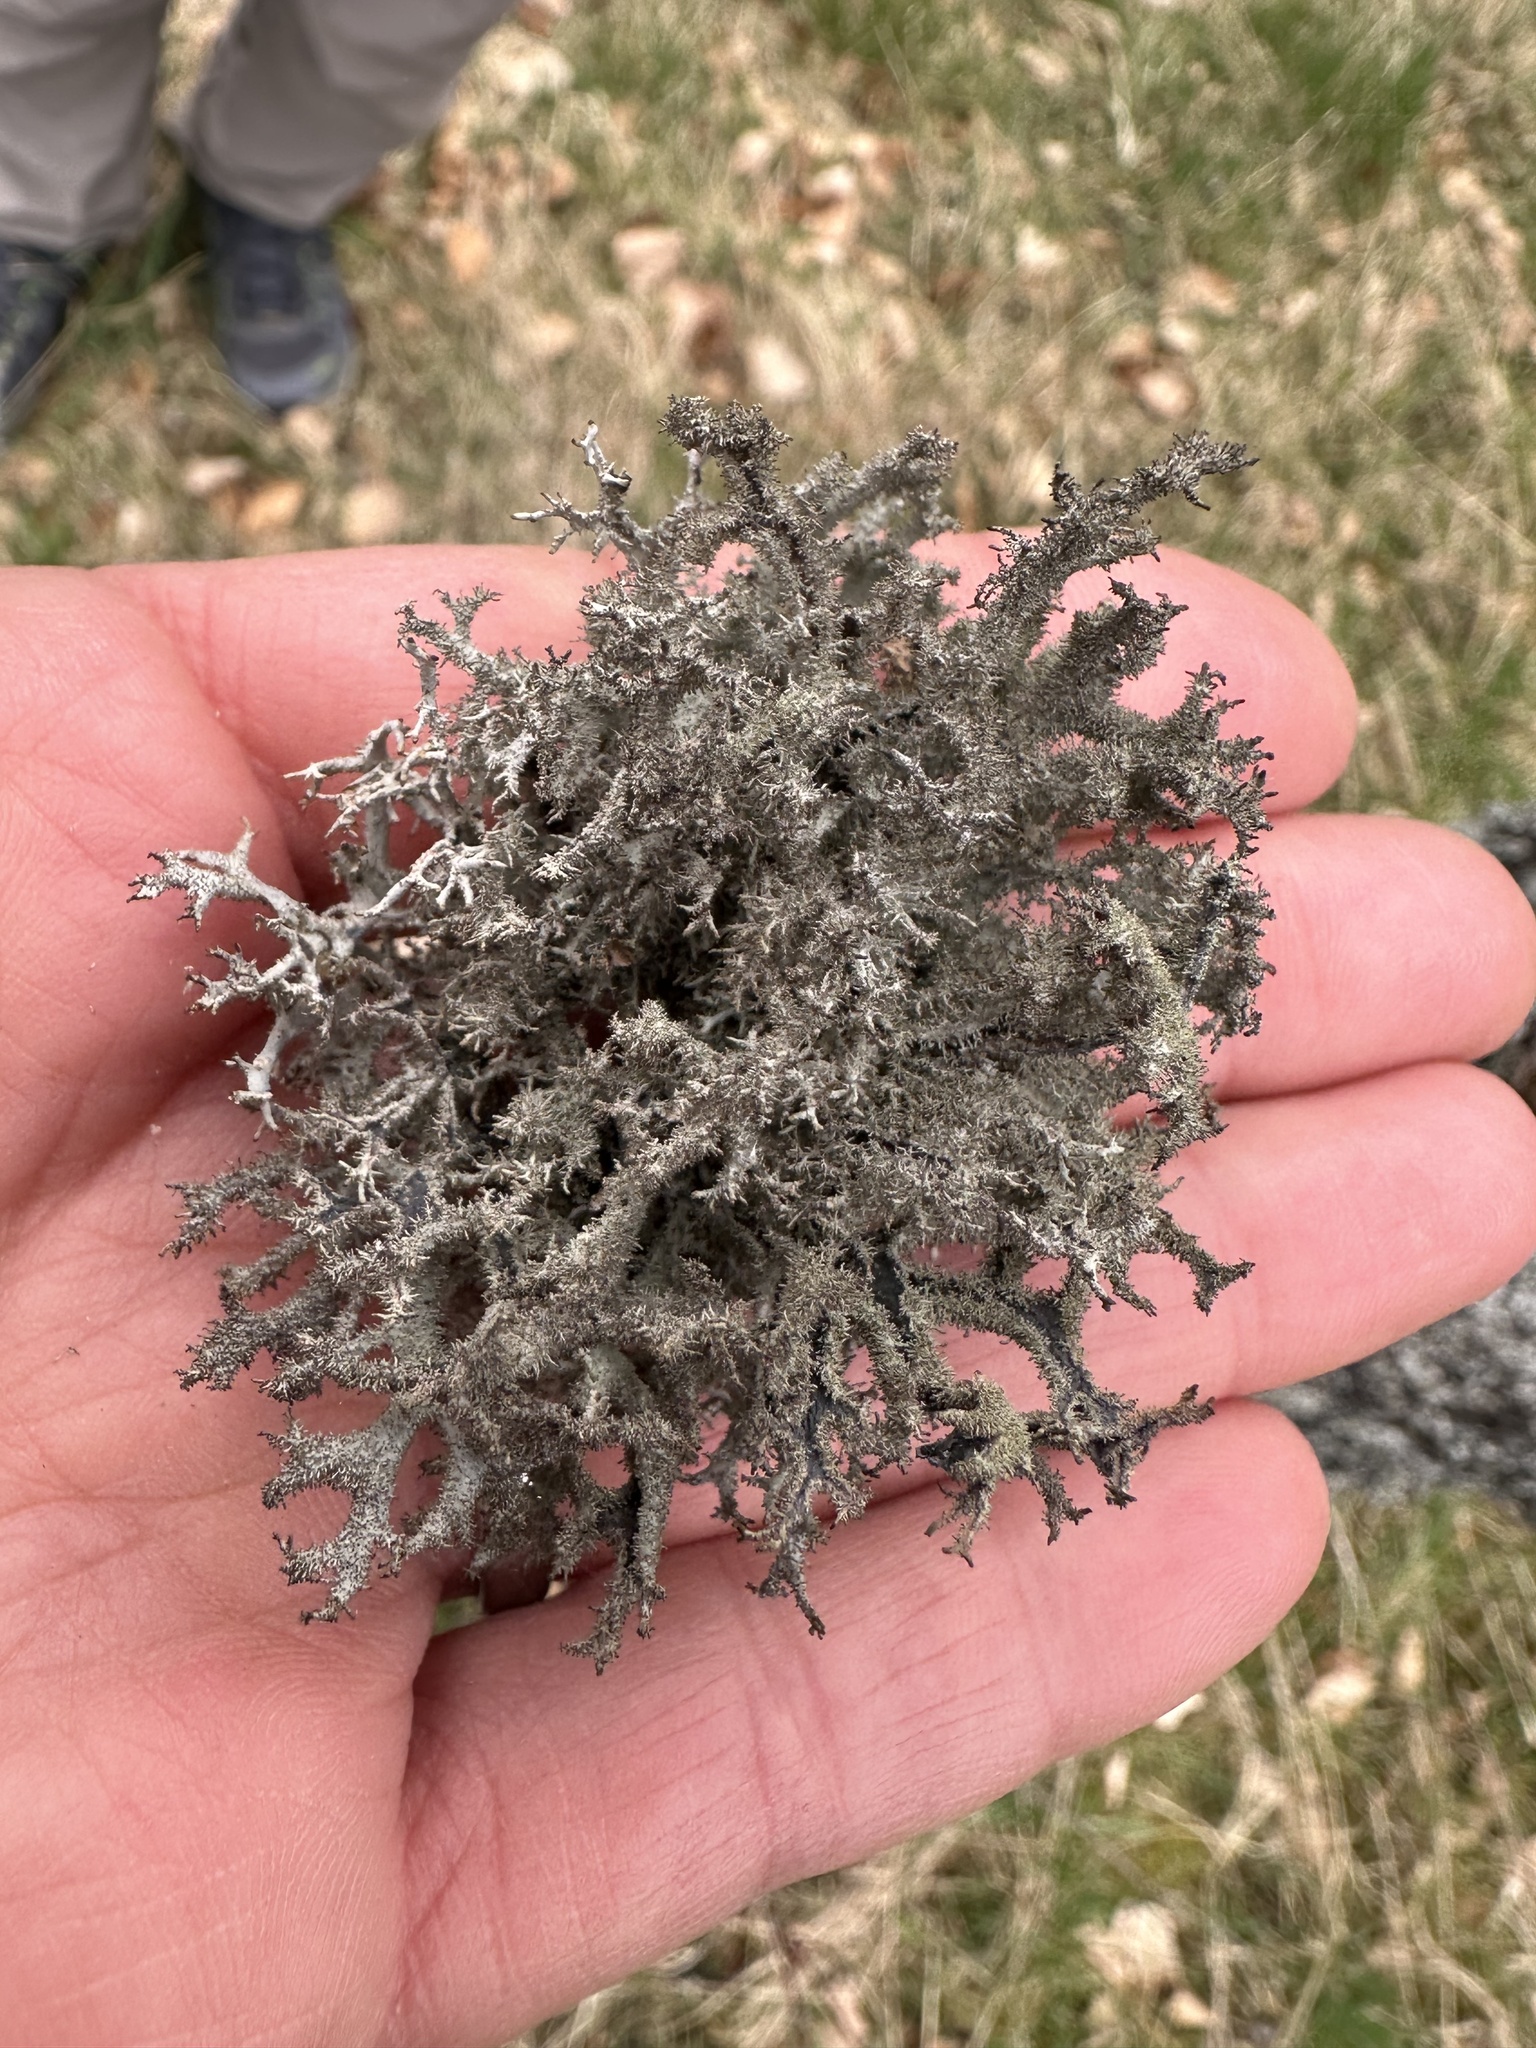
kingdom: Fungi
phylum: Ascomycota
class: Lecanoromycetes
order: Lecanorales
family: Parmeliaceae
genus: Pseudevernia
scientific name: Pseudevernia furfuracea
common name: Tree moss
